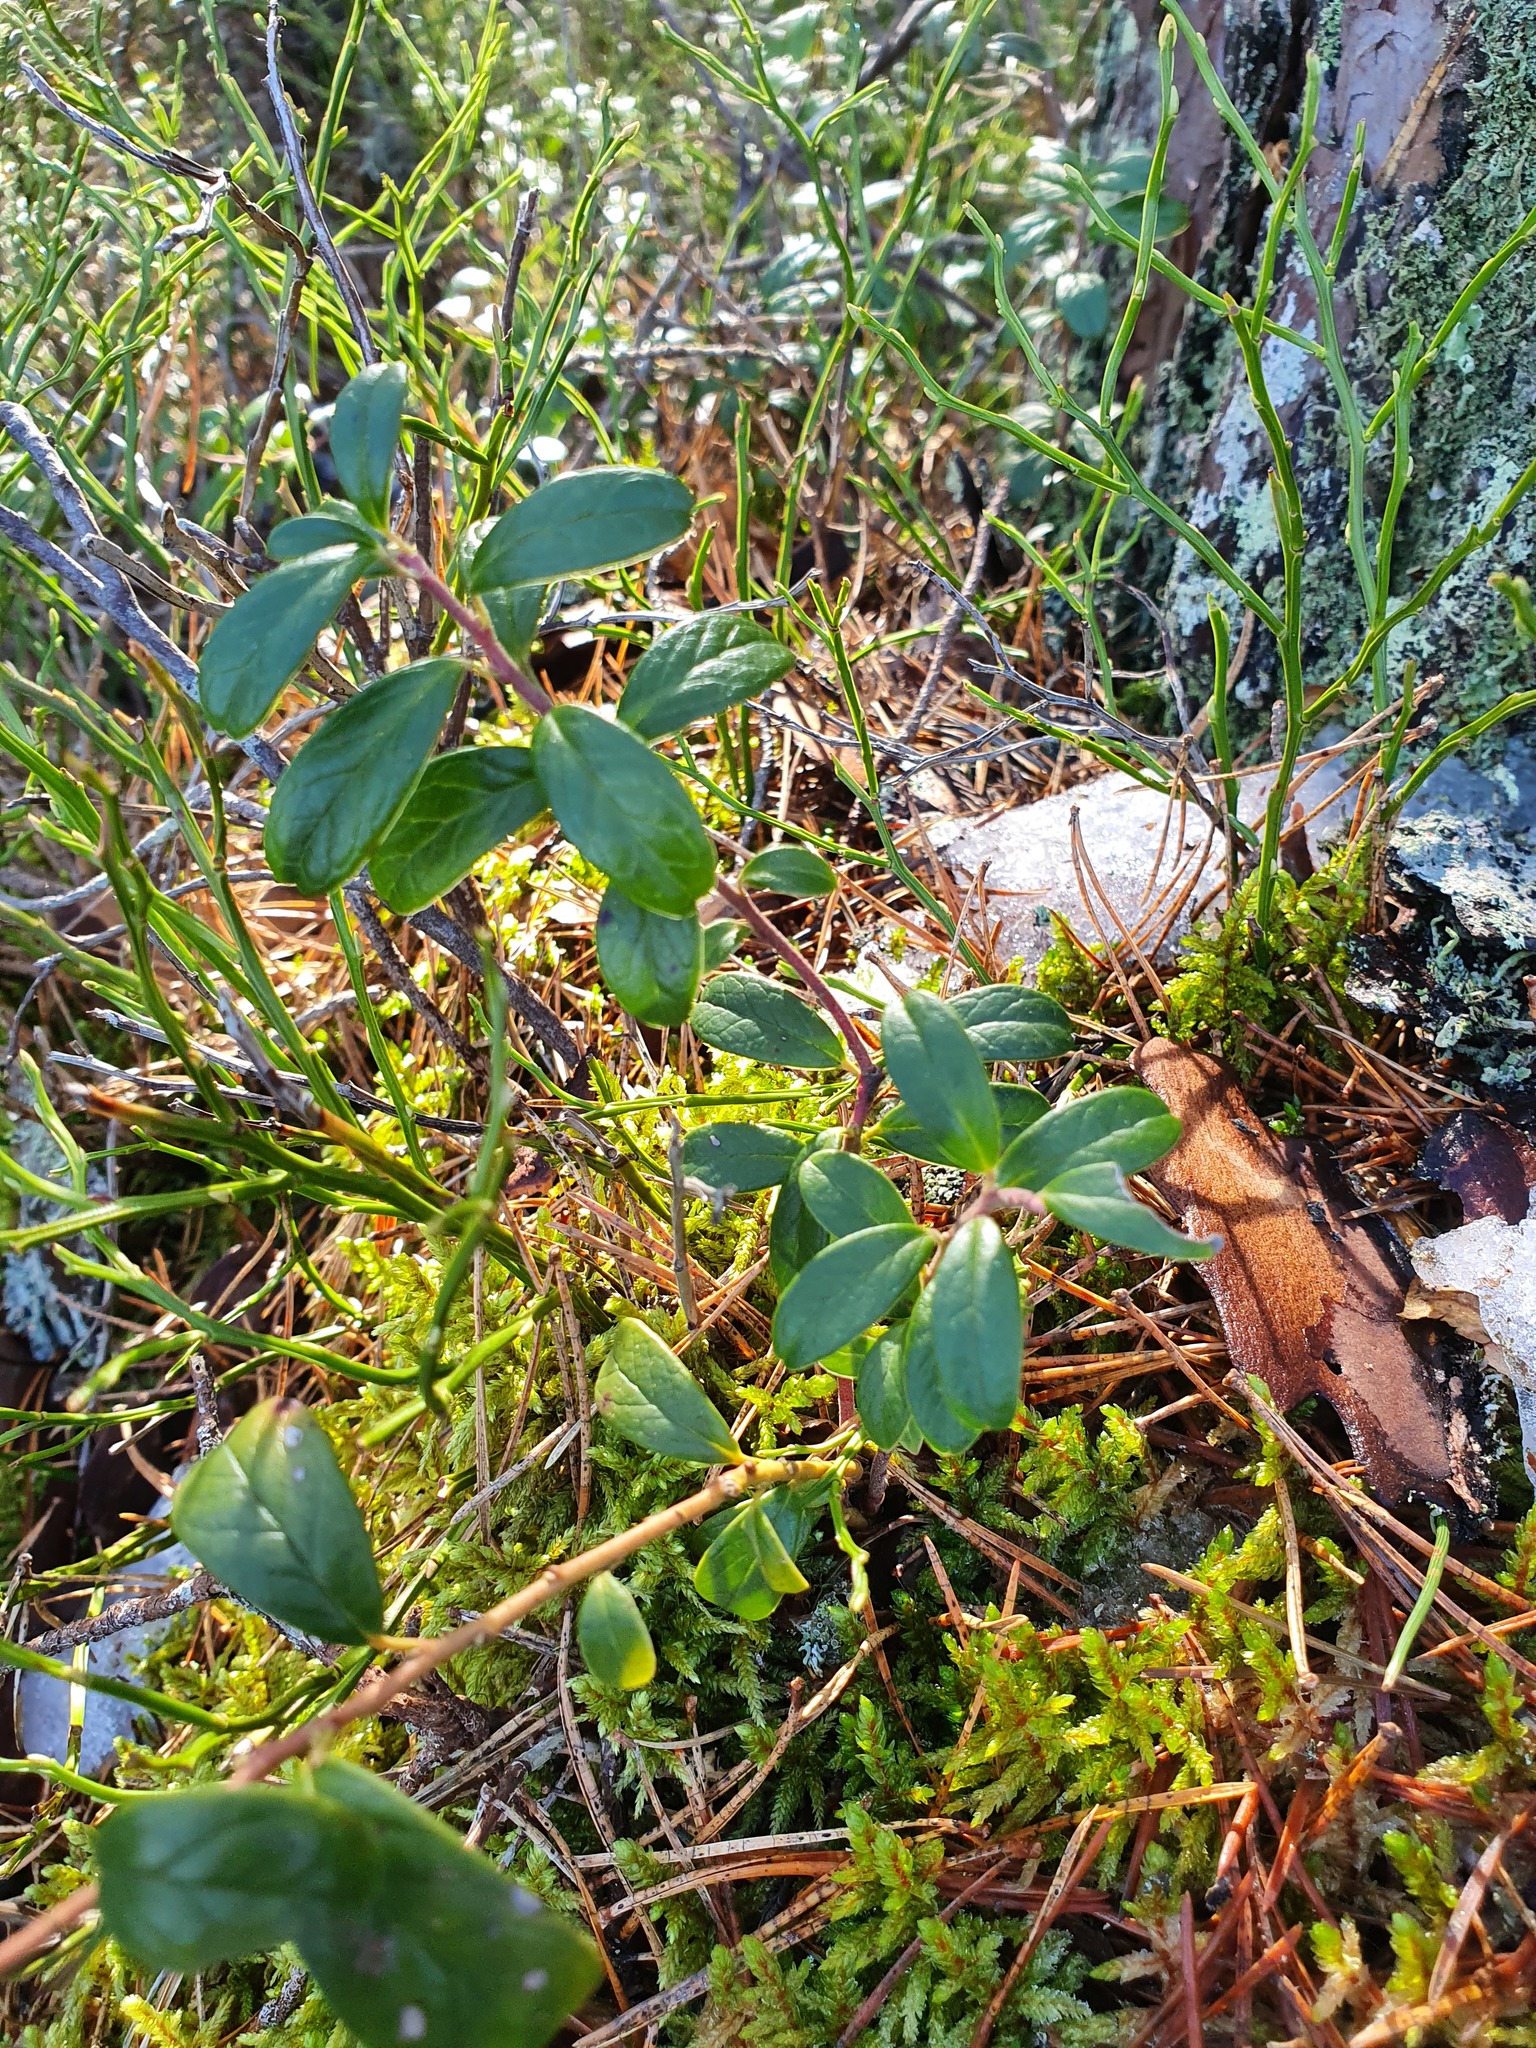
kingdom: Plantae
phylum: Tracheophyta
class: Magnoliopsida
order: Ericales
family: Ericaceae
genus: Vaccinium
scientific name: Vaccinium vitis-idaea
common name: Cowberry
